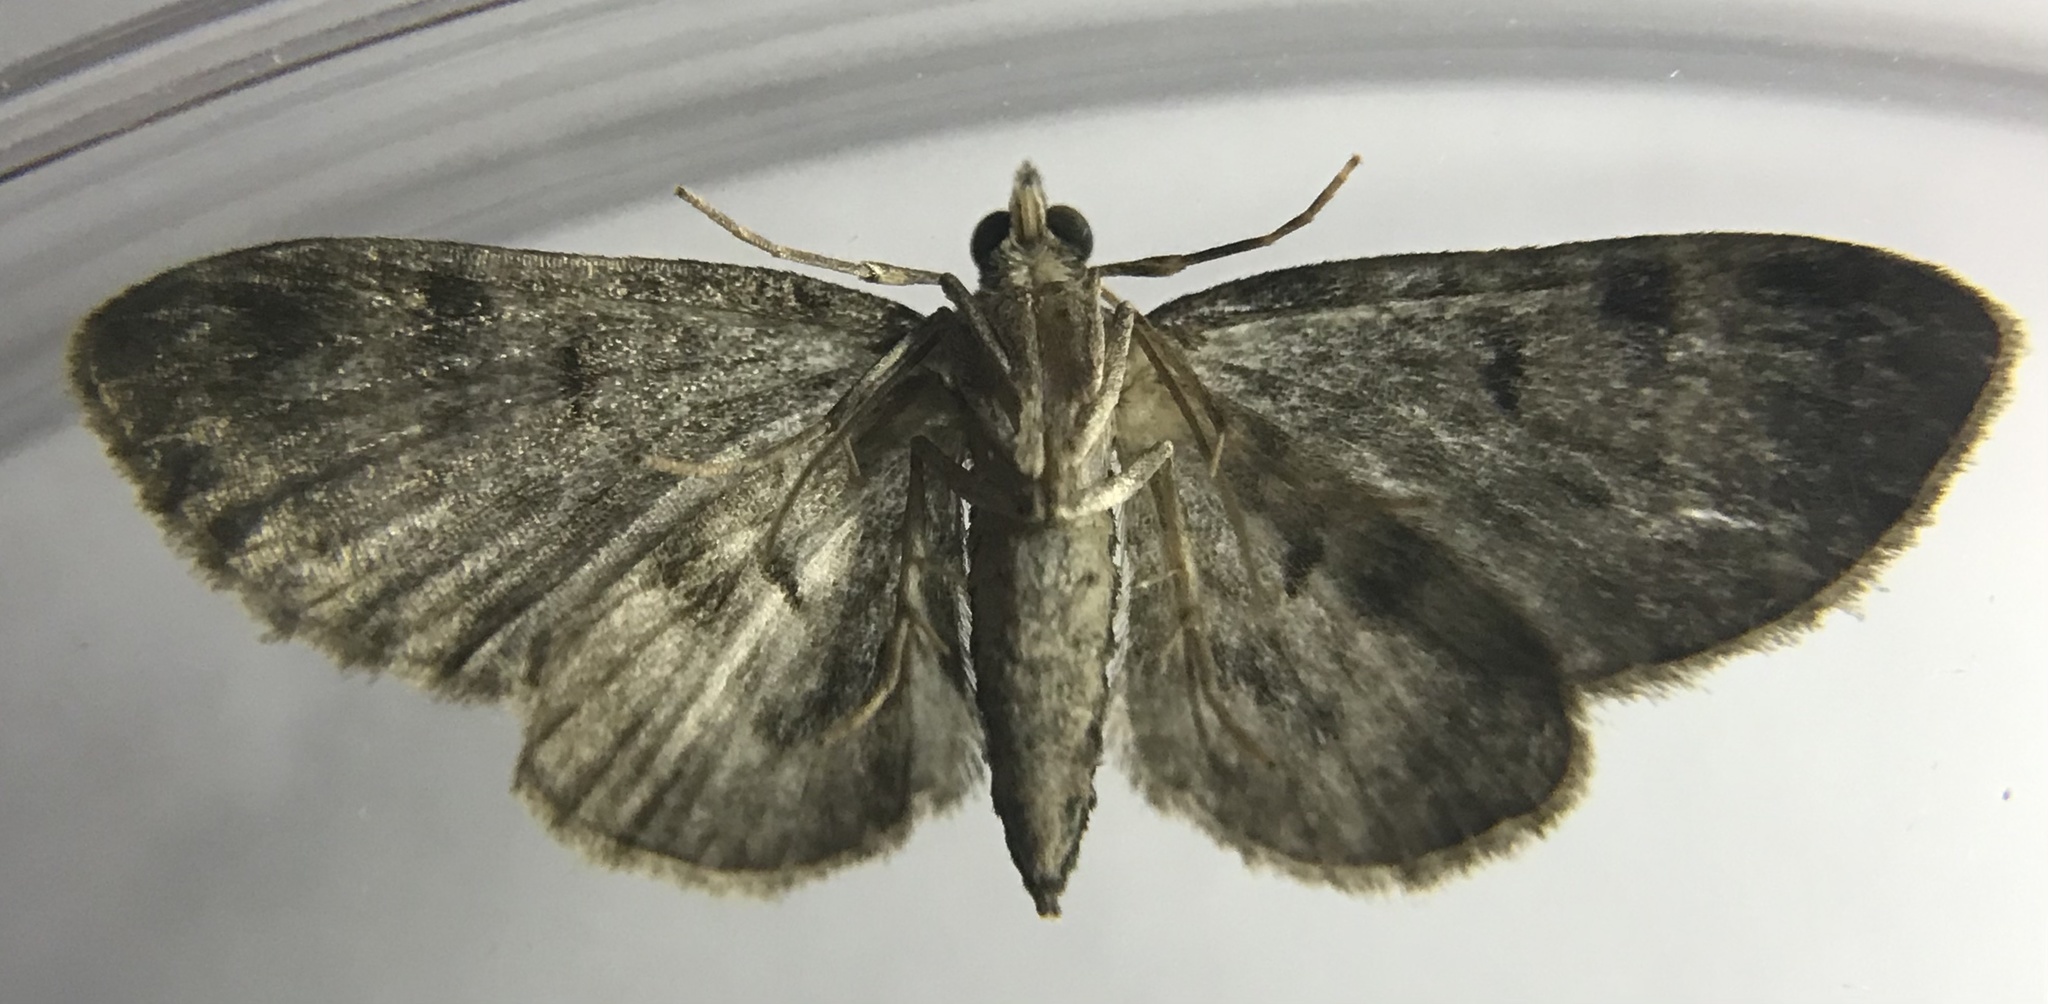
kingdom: Animalia
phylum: Arthropoda
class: Insecta
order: Lepidoptera
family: Geometridae
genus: Pasiphila
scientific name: Pasiphila rectangulata
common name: Green pug
